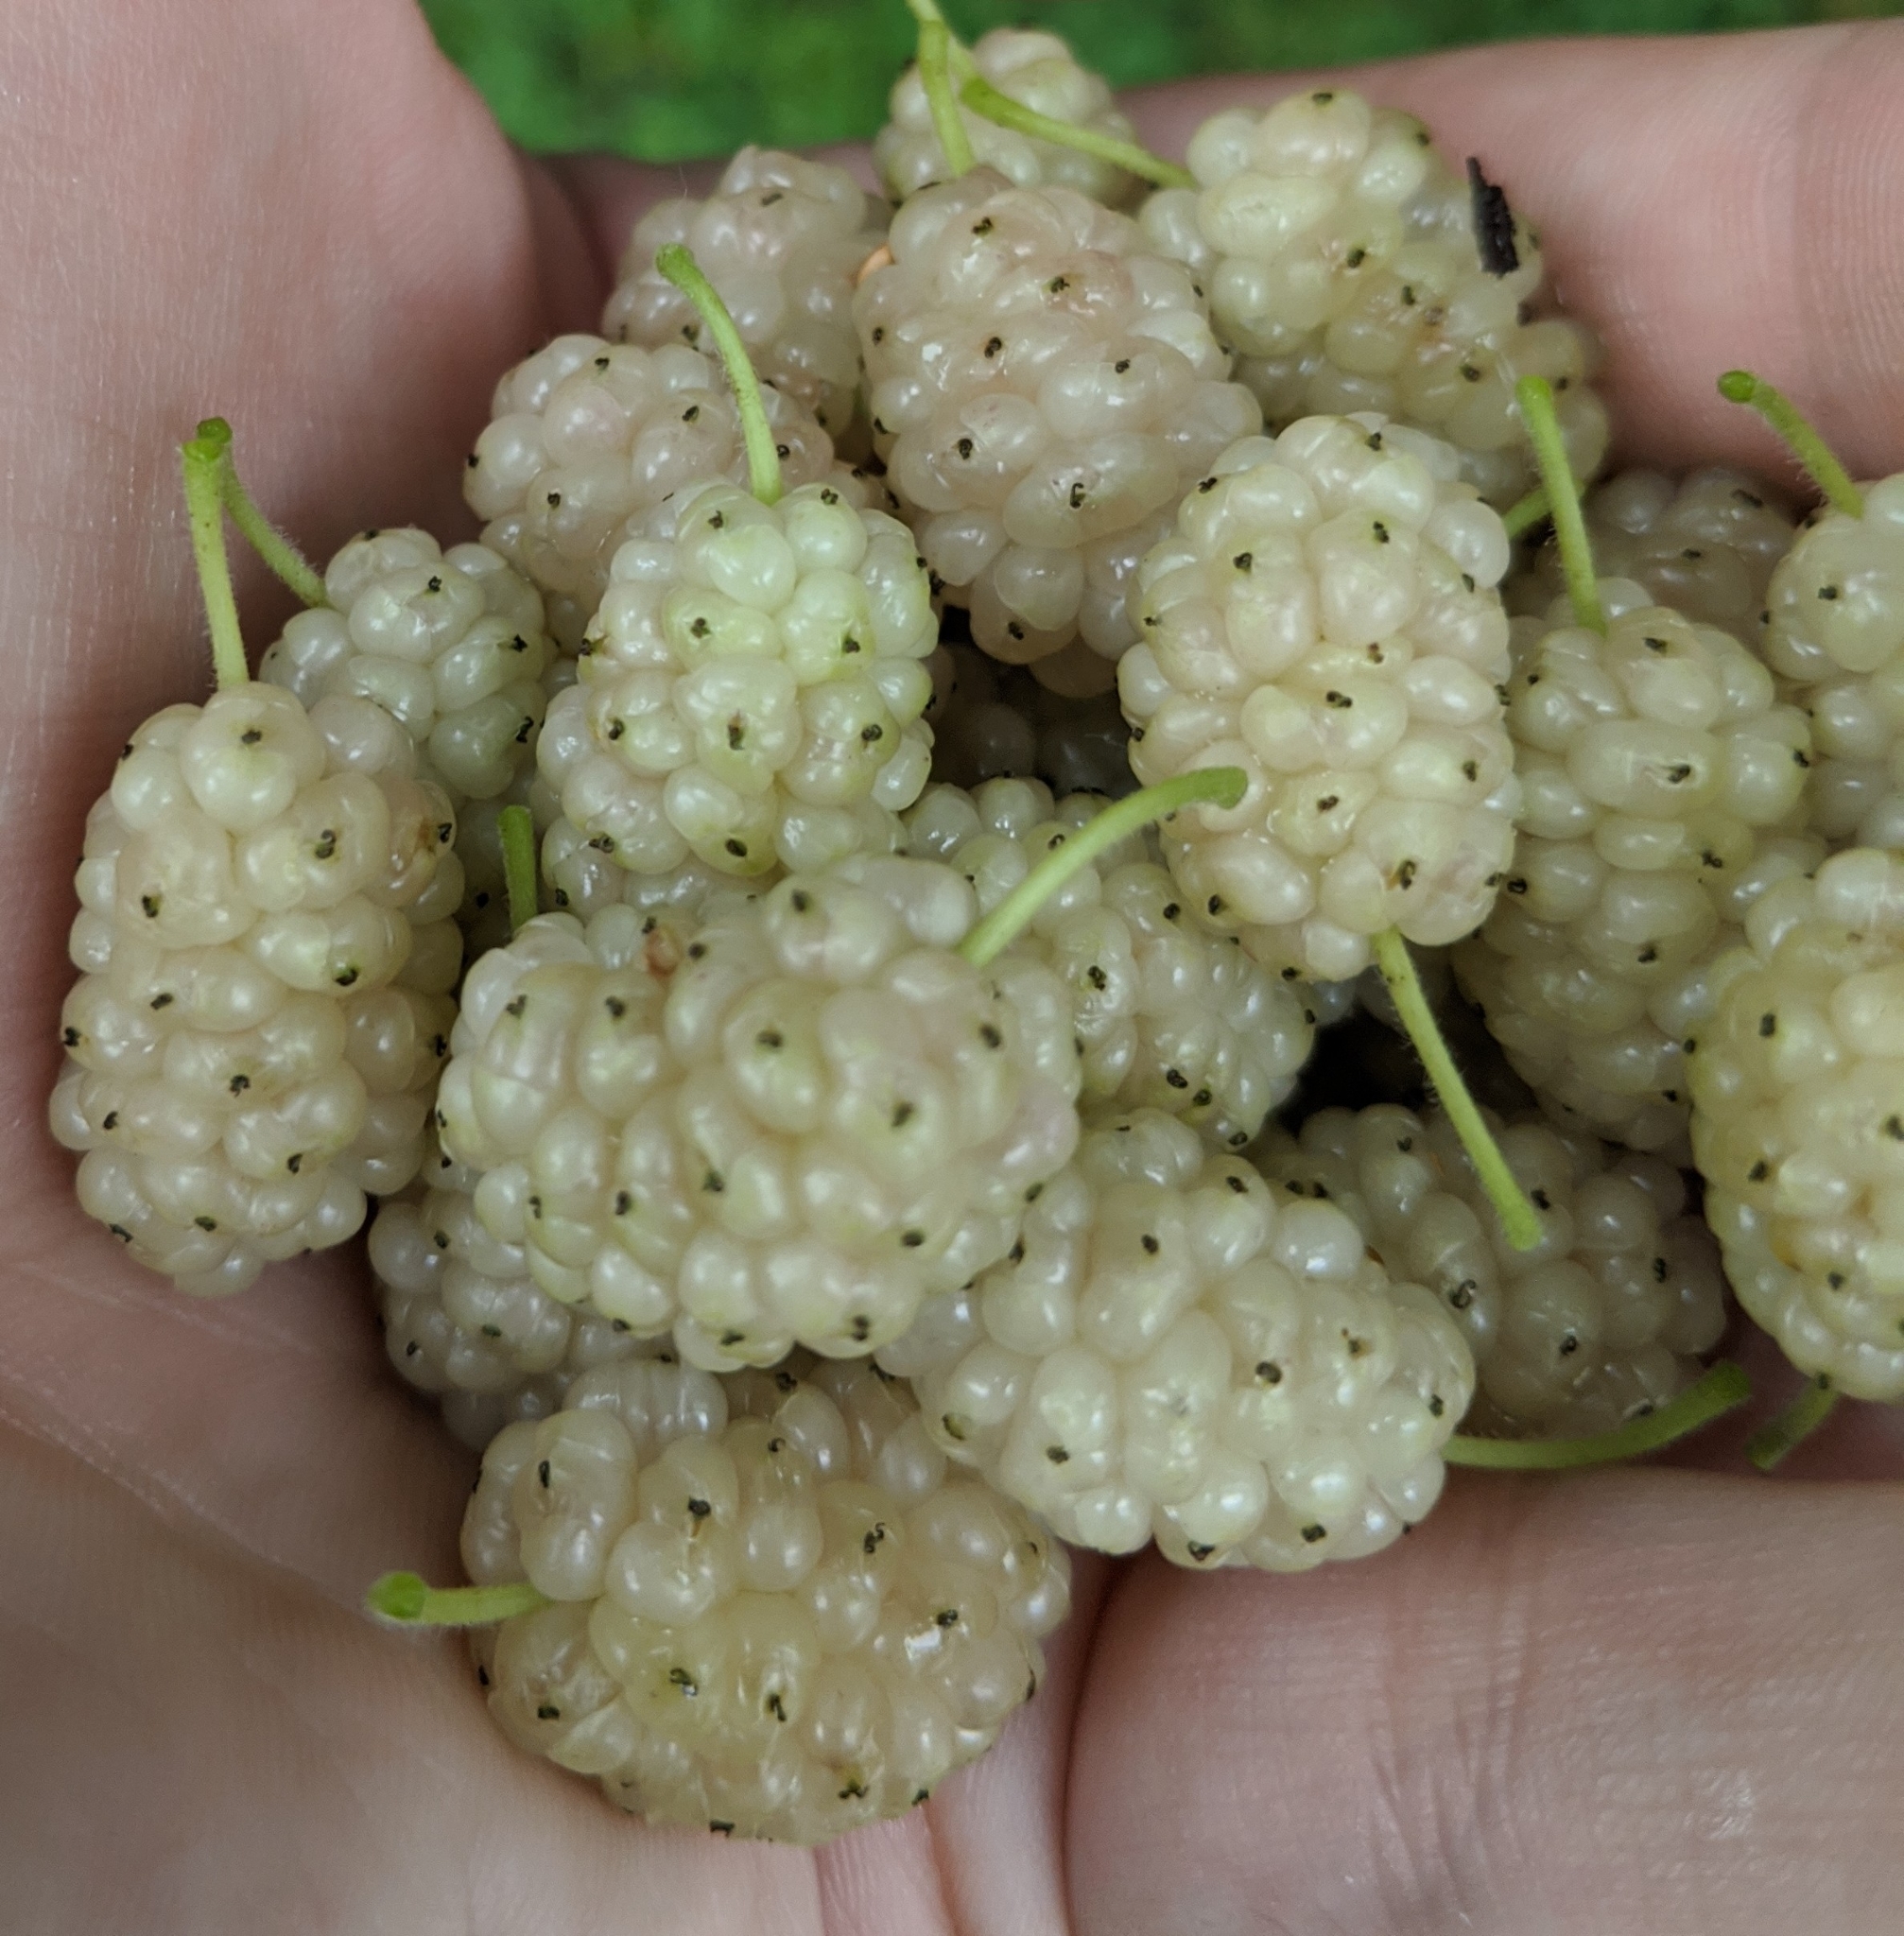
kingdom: Plantae
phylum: Tracheophyta
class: Magnoliopsida
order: Rosales
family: Moraceae
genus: Morus
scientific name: Morus alba
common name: White mulberry
